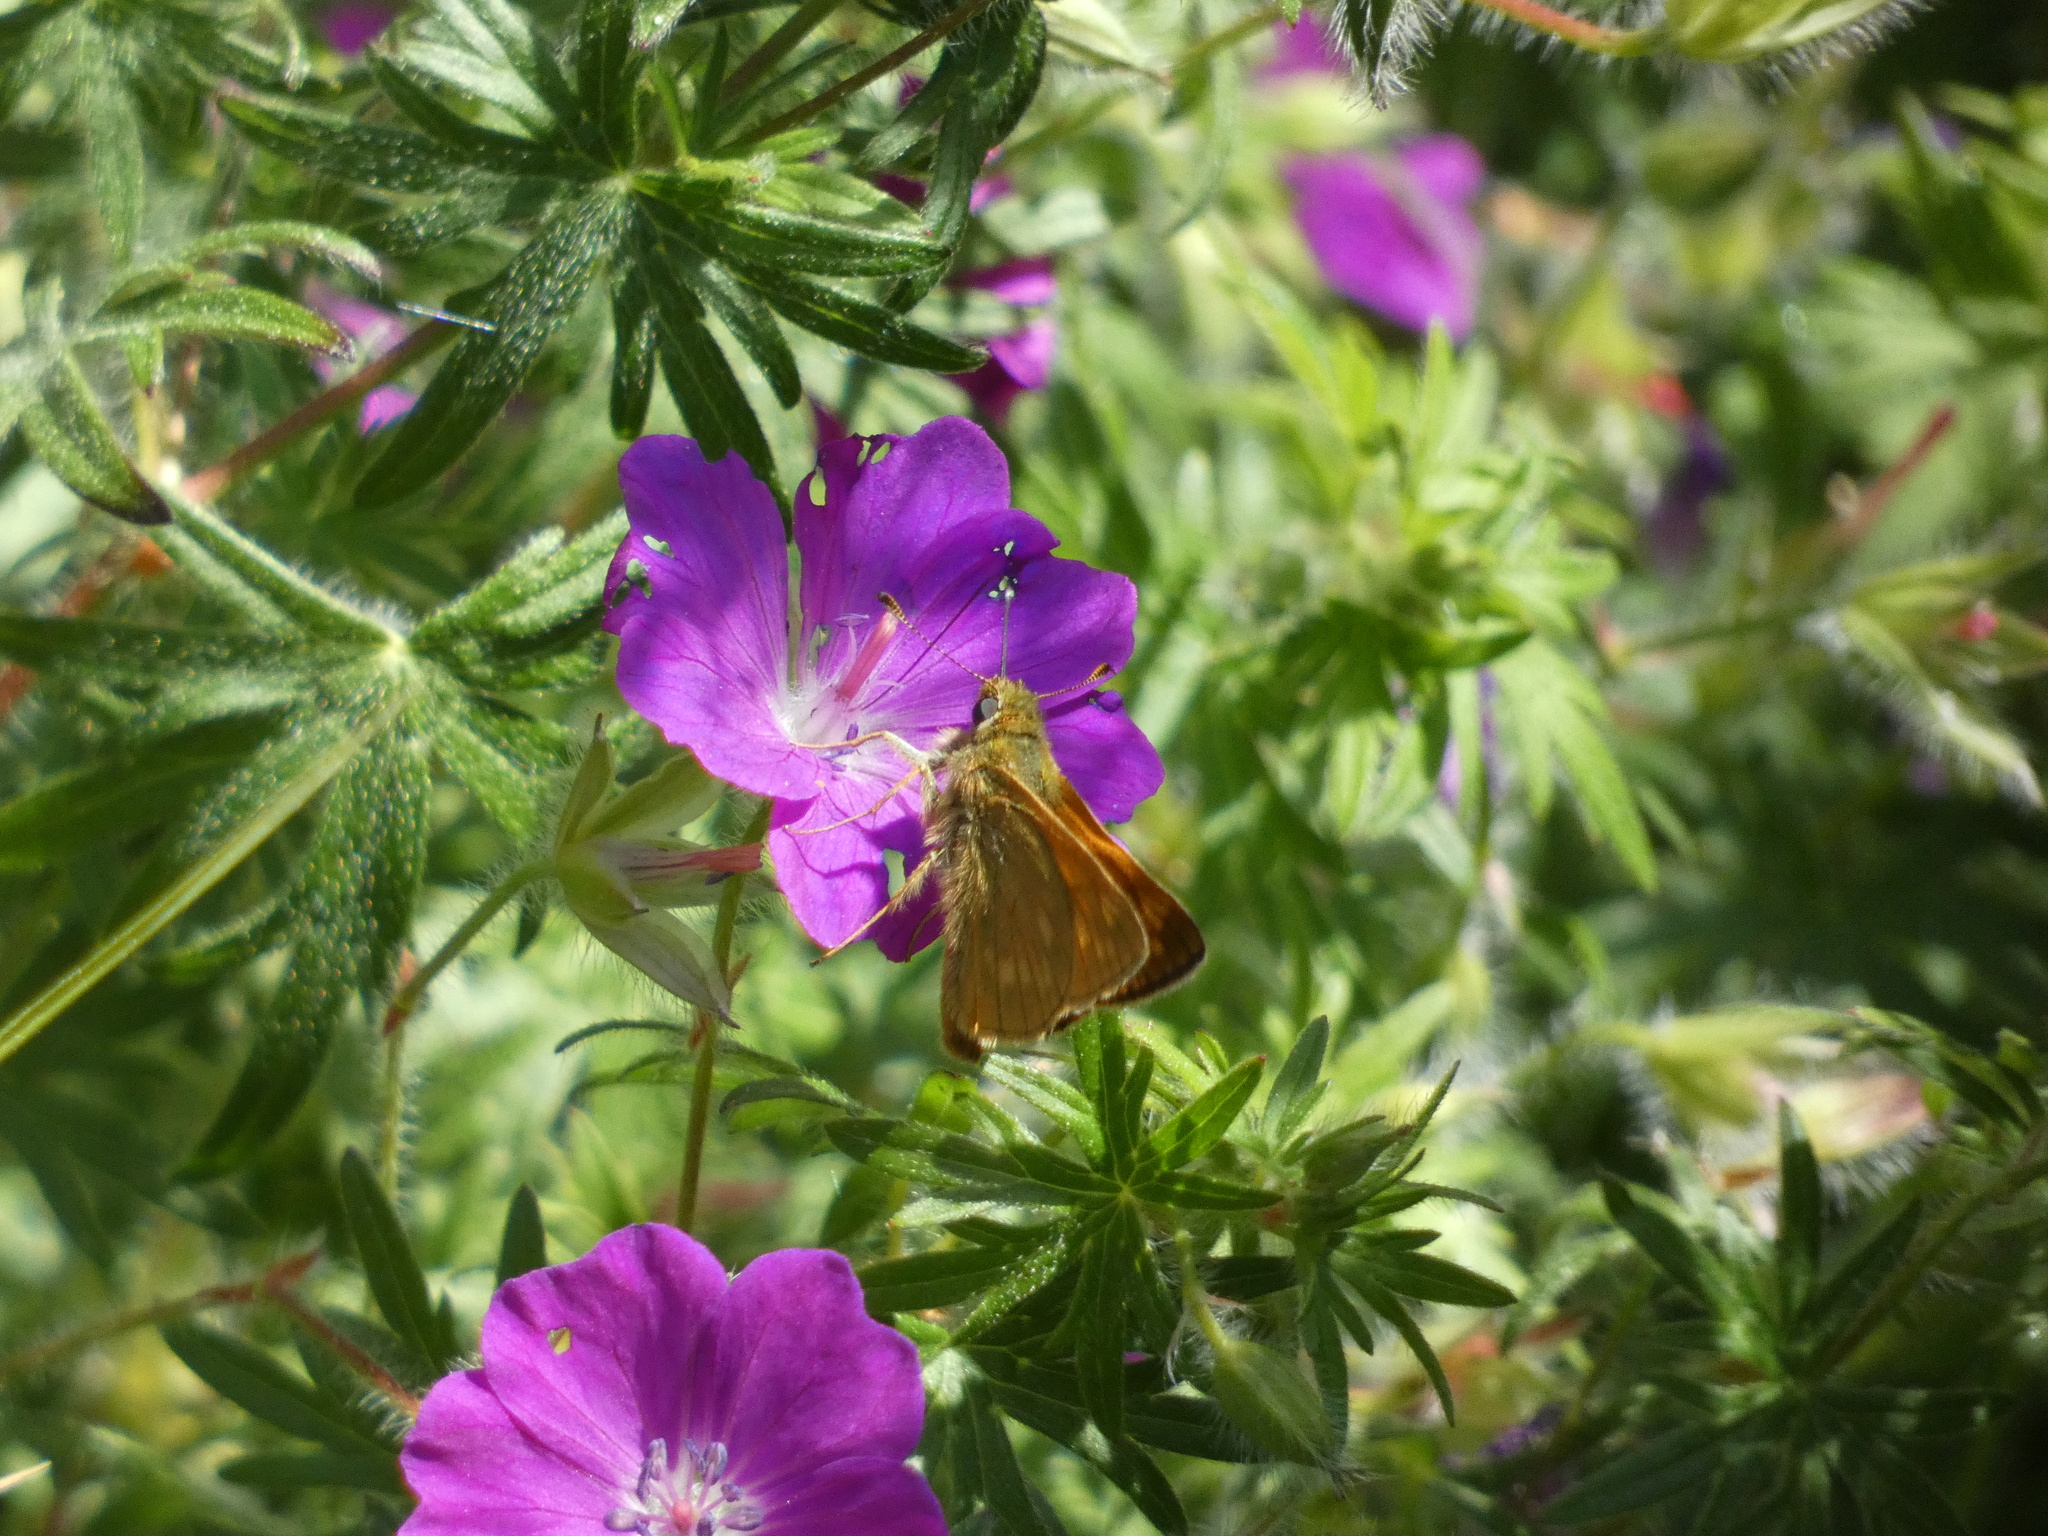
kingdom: Animalia
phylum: Arthropoda
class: Insecta
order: Lepidoptera
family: Hesperiidae
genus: Ochlodes
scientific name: Ochlodes venata
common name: Large skipper
